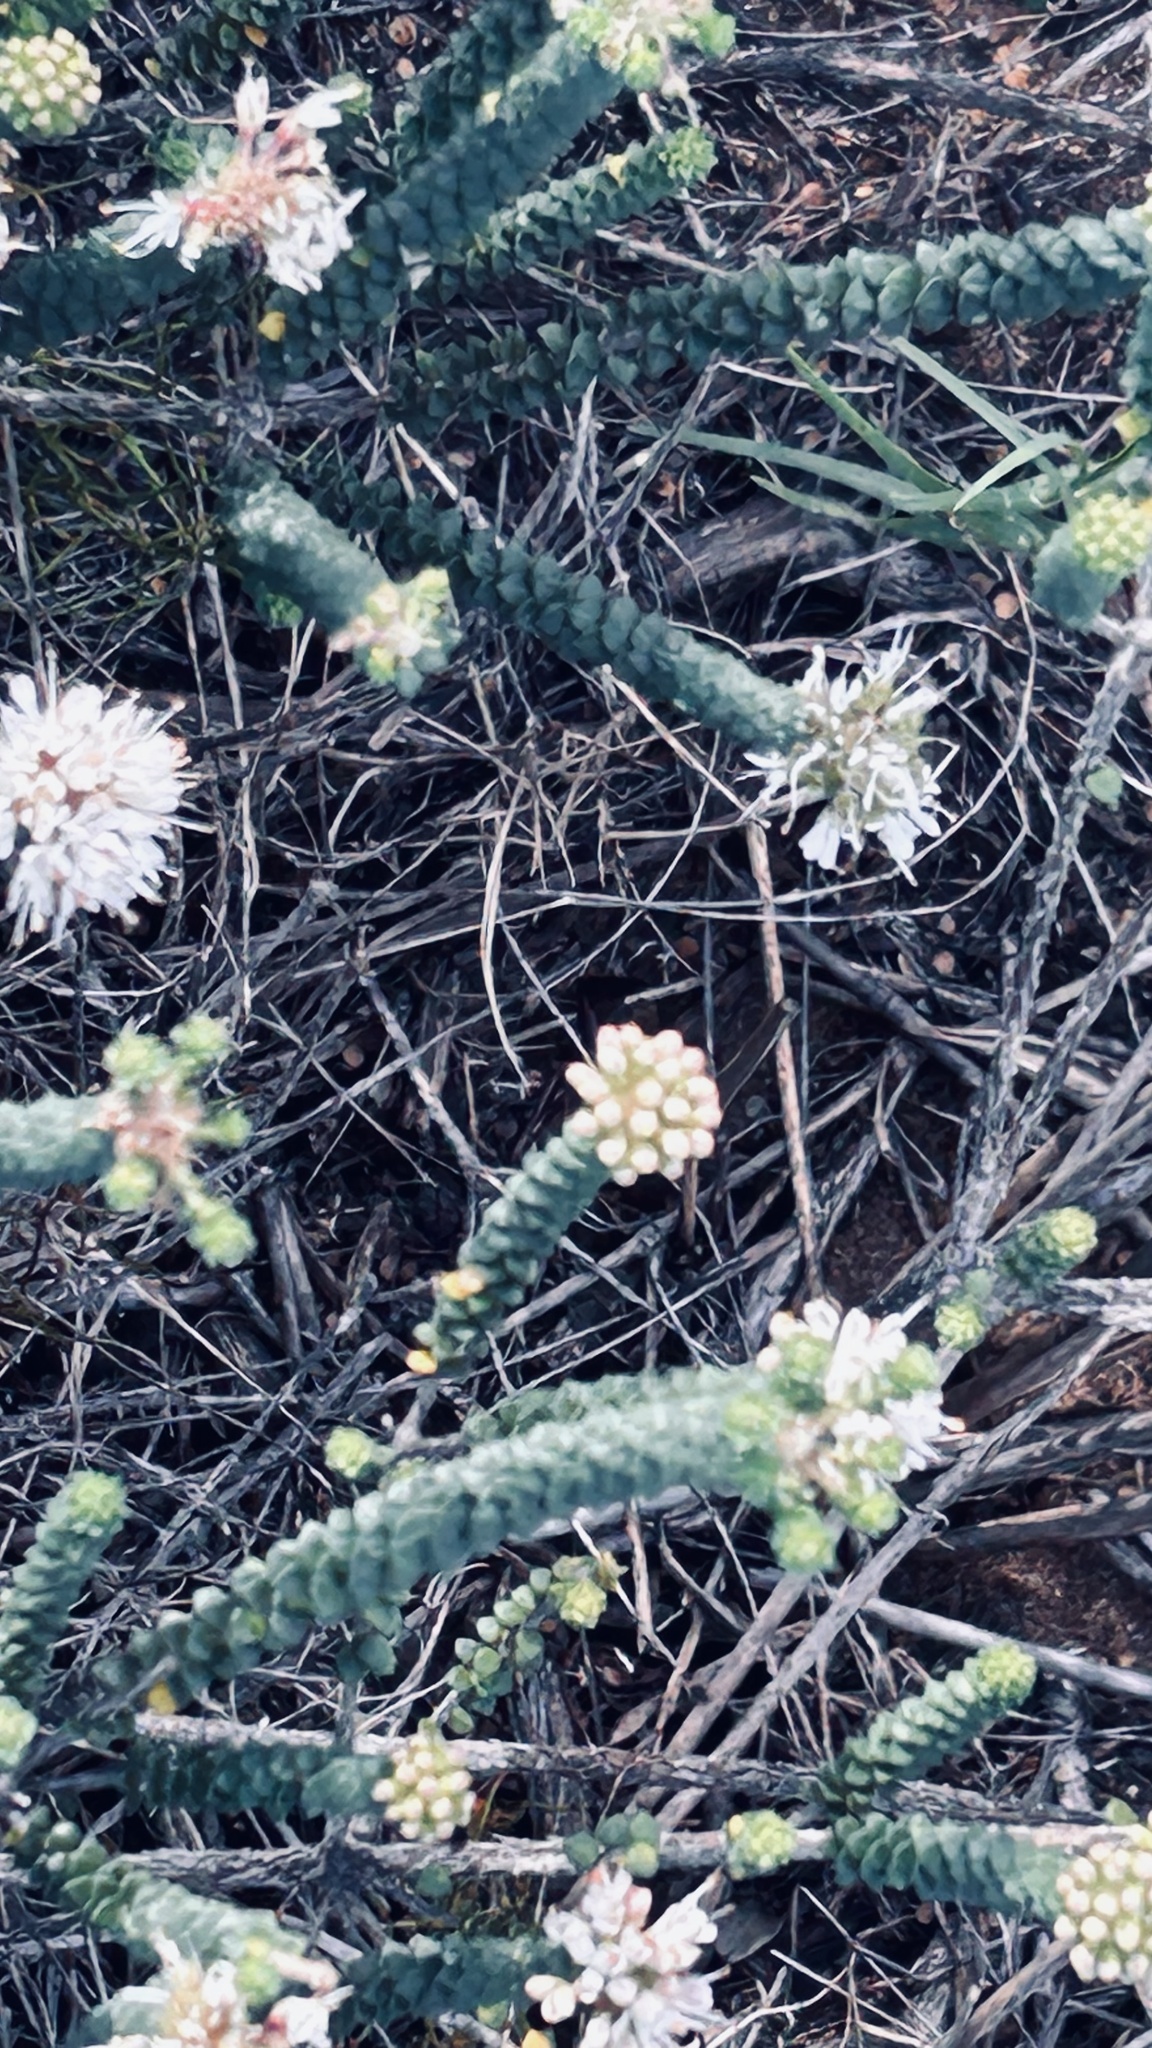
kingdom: Plantae
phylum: Tracheophyta
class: Magnoliopsida
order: Sapindales
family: Rutaceae
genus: Agathosma
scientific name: Agathosma muirii
